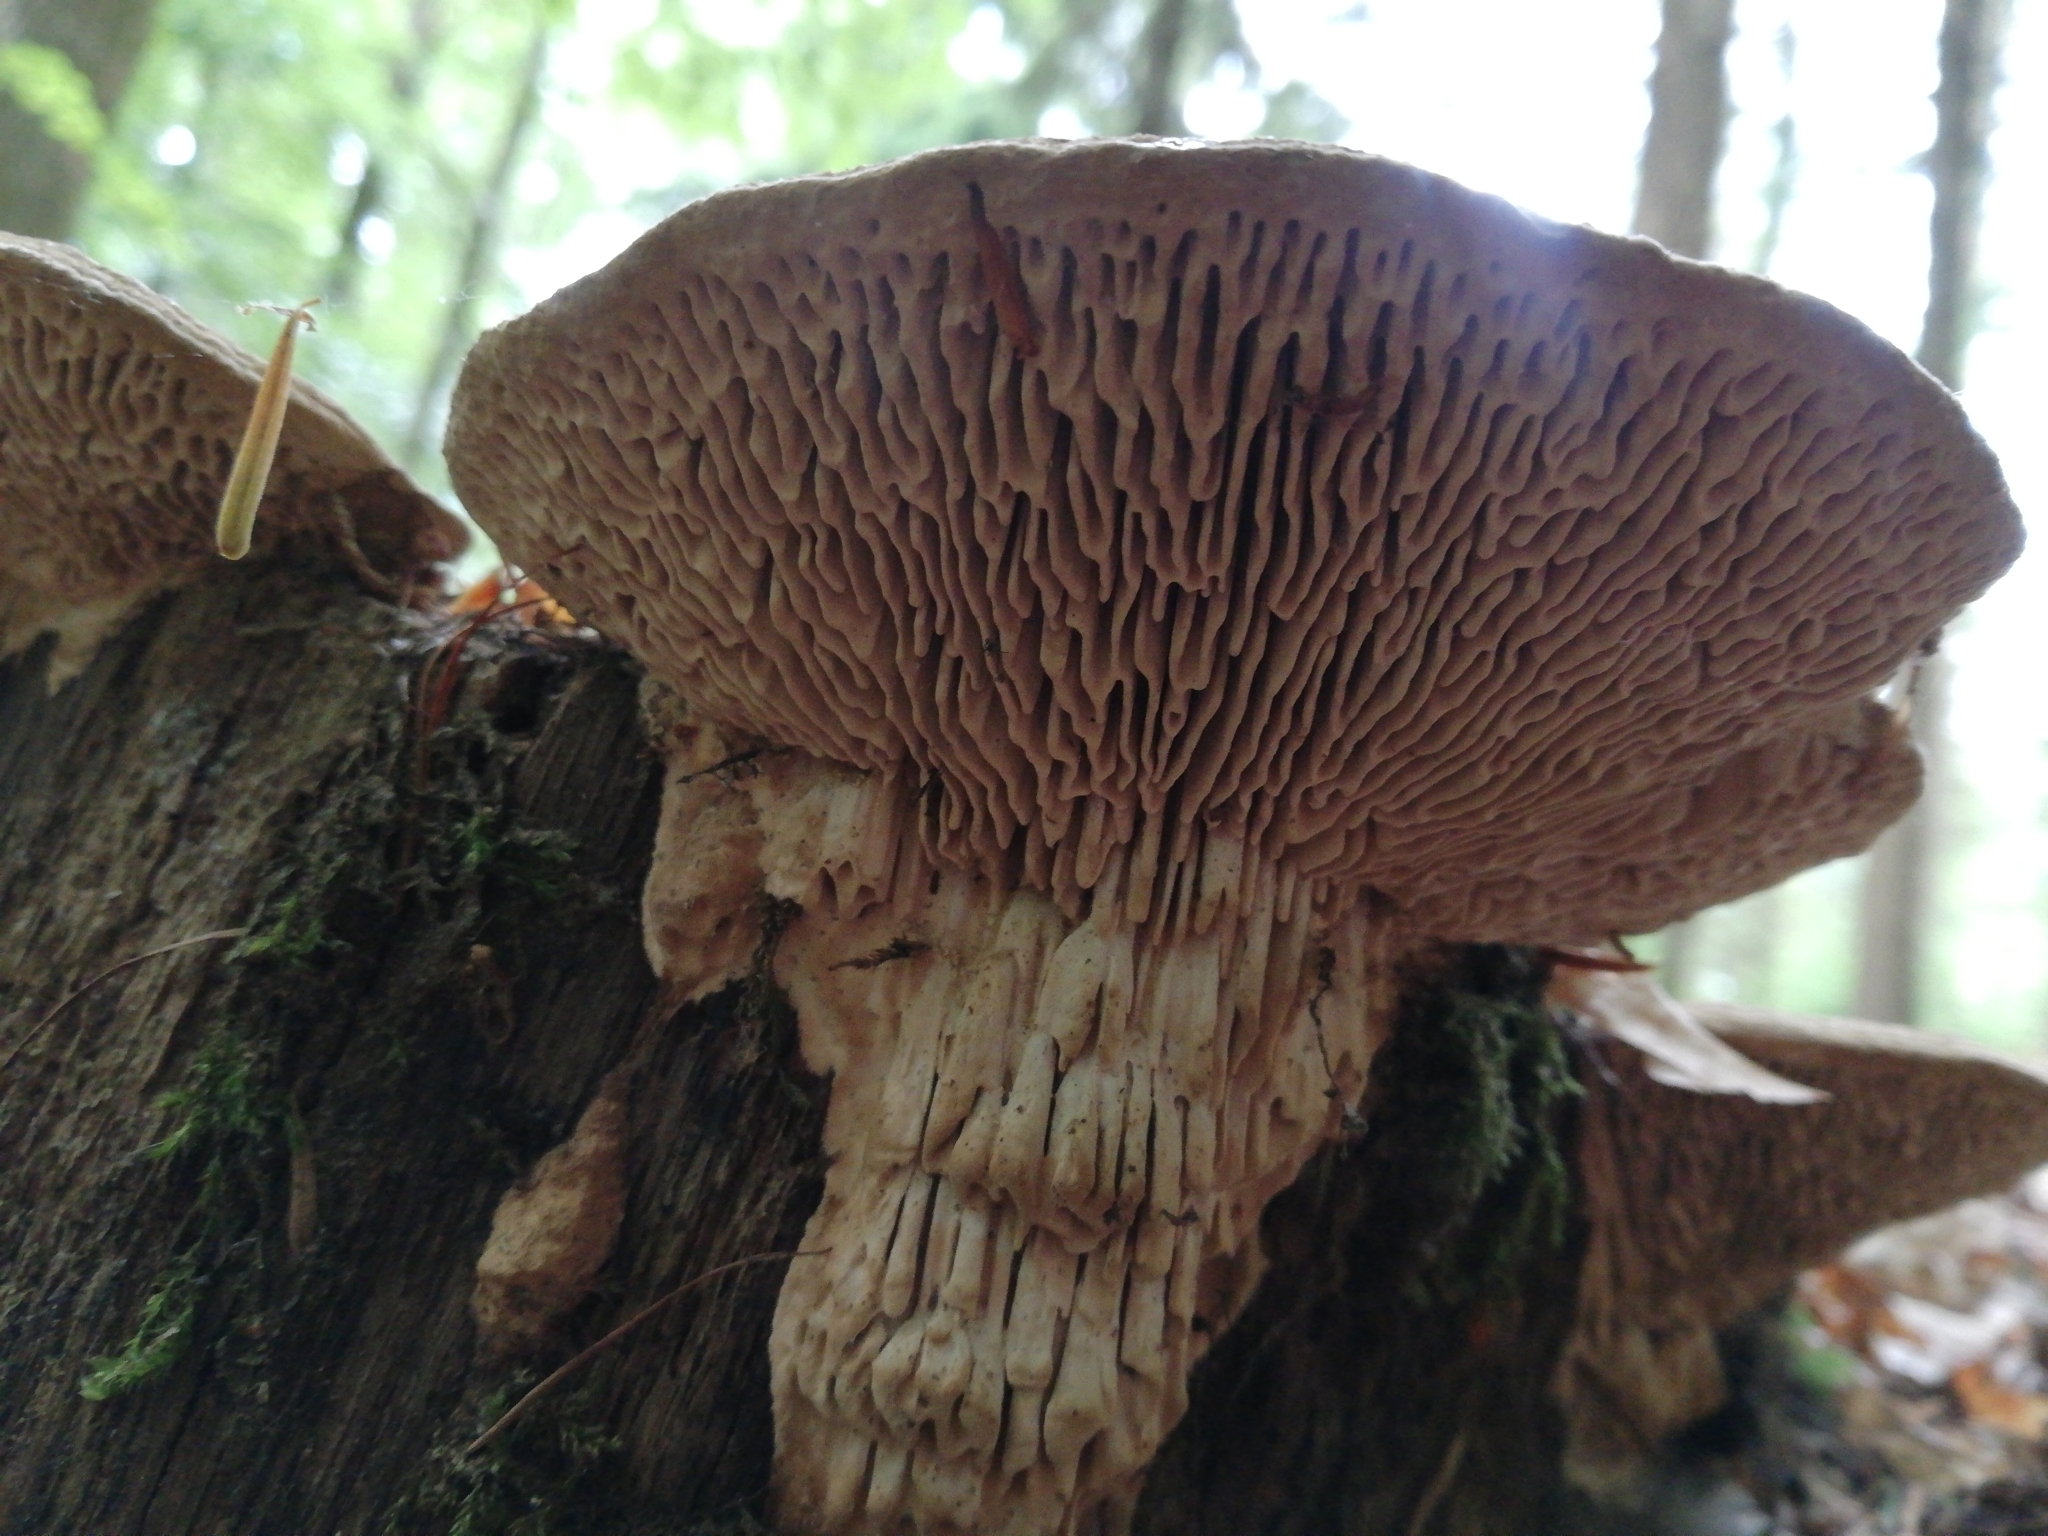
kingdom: Fungi
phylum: Basidiomycota
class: Agaricomycetes
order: Polyporales
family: Fomitopsidaceae
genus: Fomitopsis
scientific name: Fomitopsis
